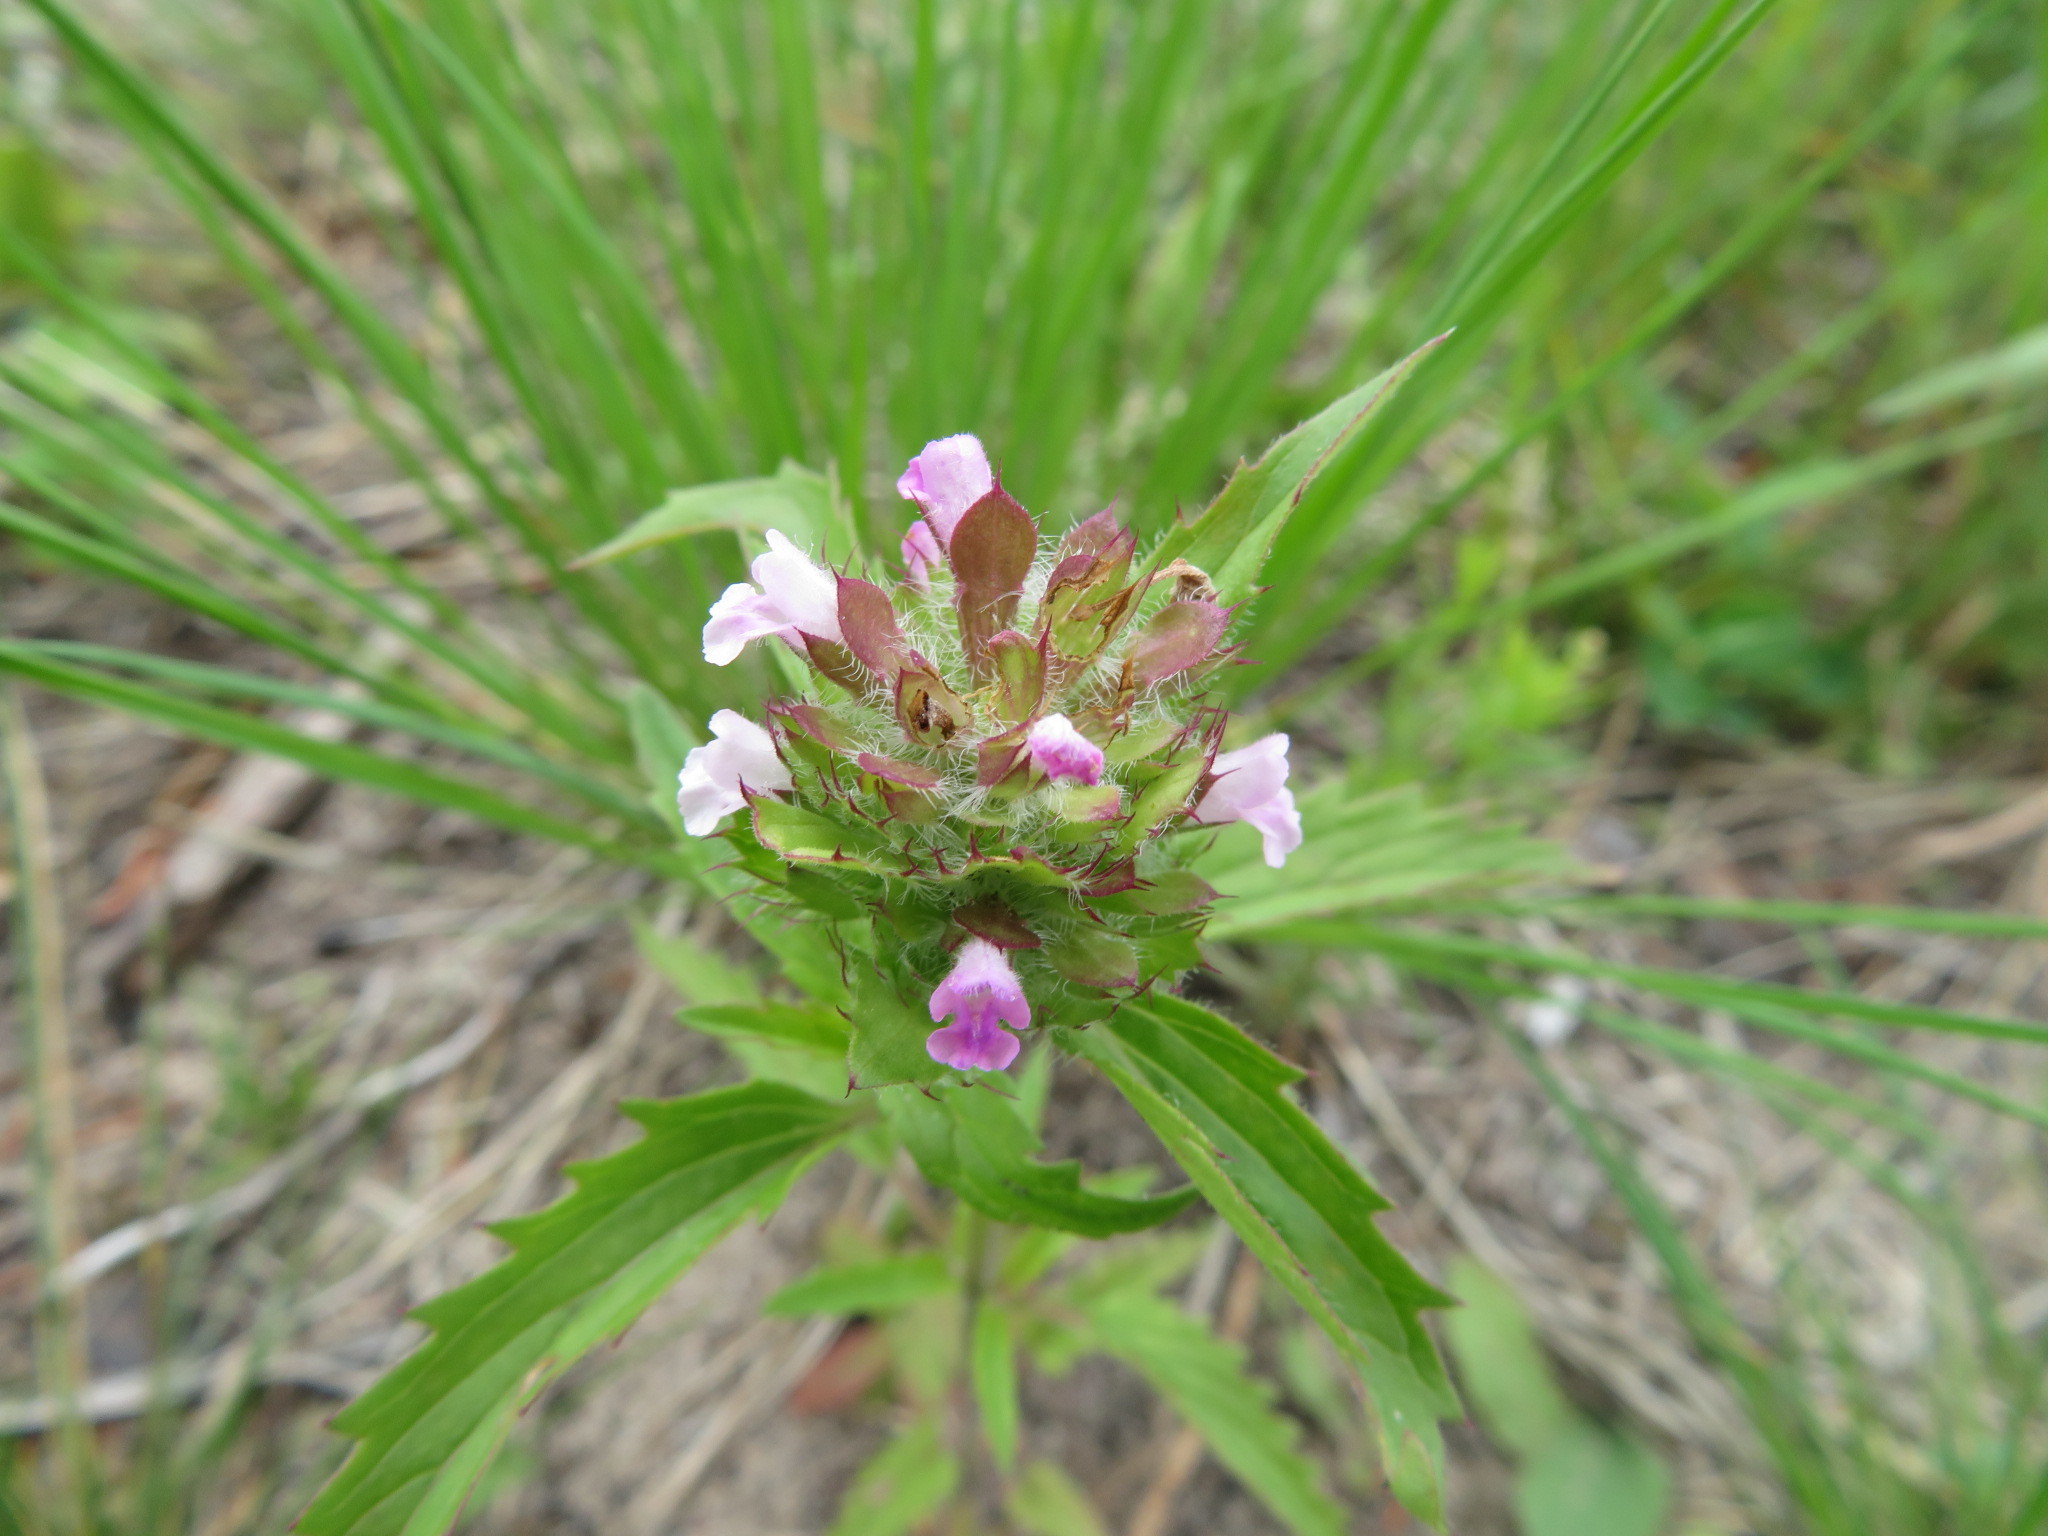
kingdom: Plantae
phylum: Tracheophyta
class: Magnoliopsida
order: Lamiales
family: Lamiaceae
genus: Dracocephalum
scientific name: Dracocephalum parviflorum
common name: American dragonhead
